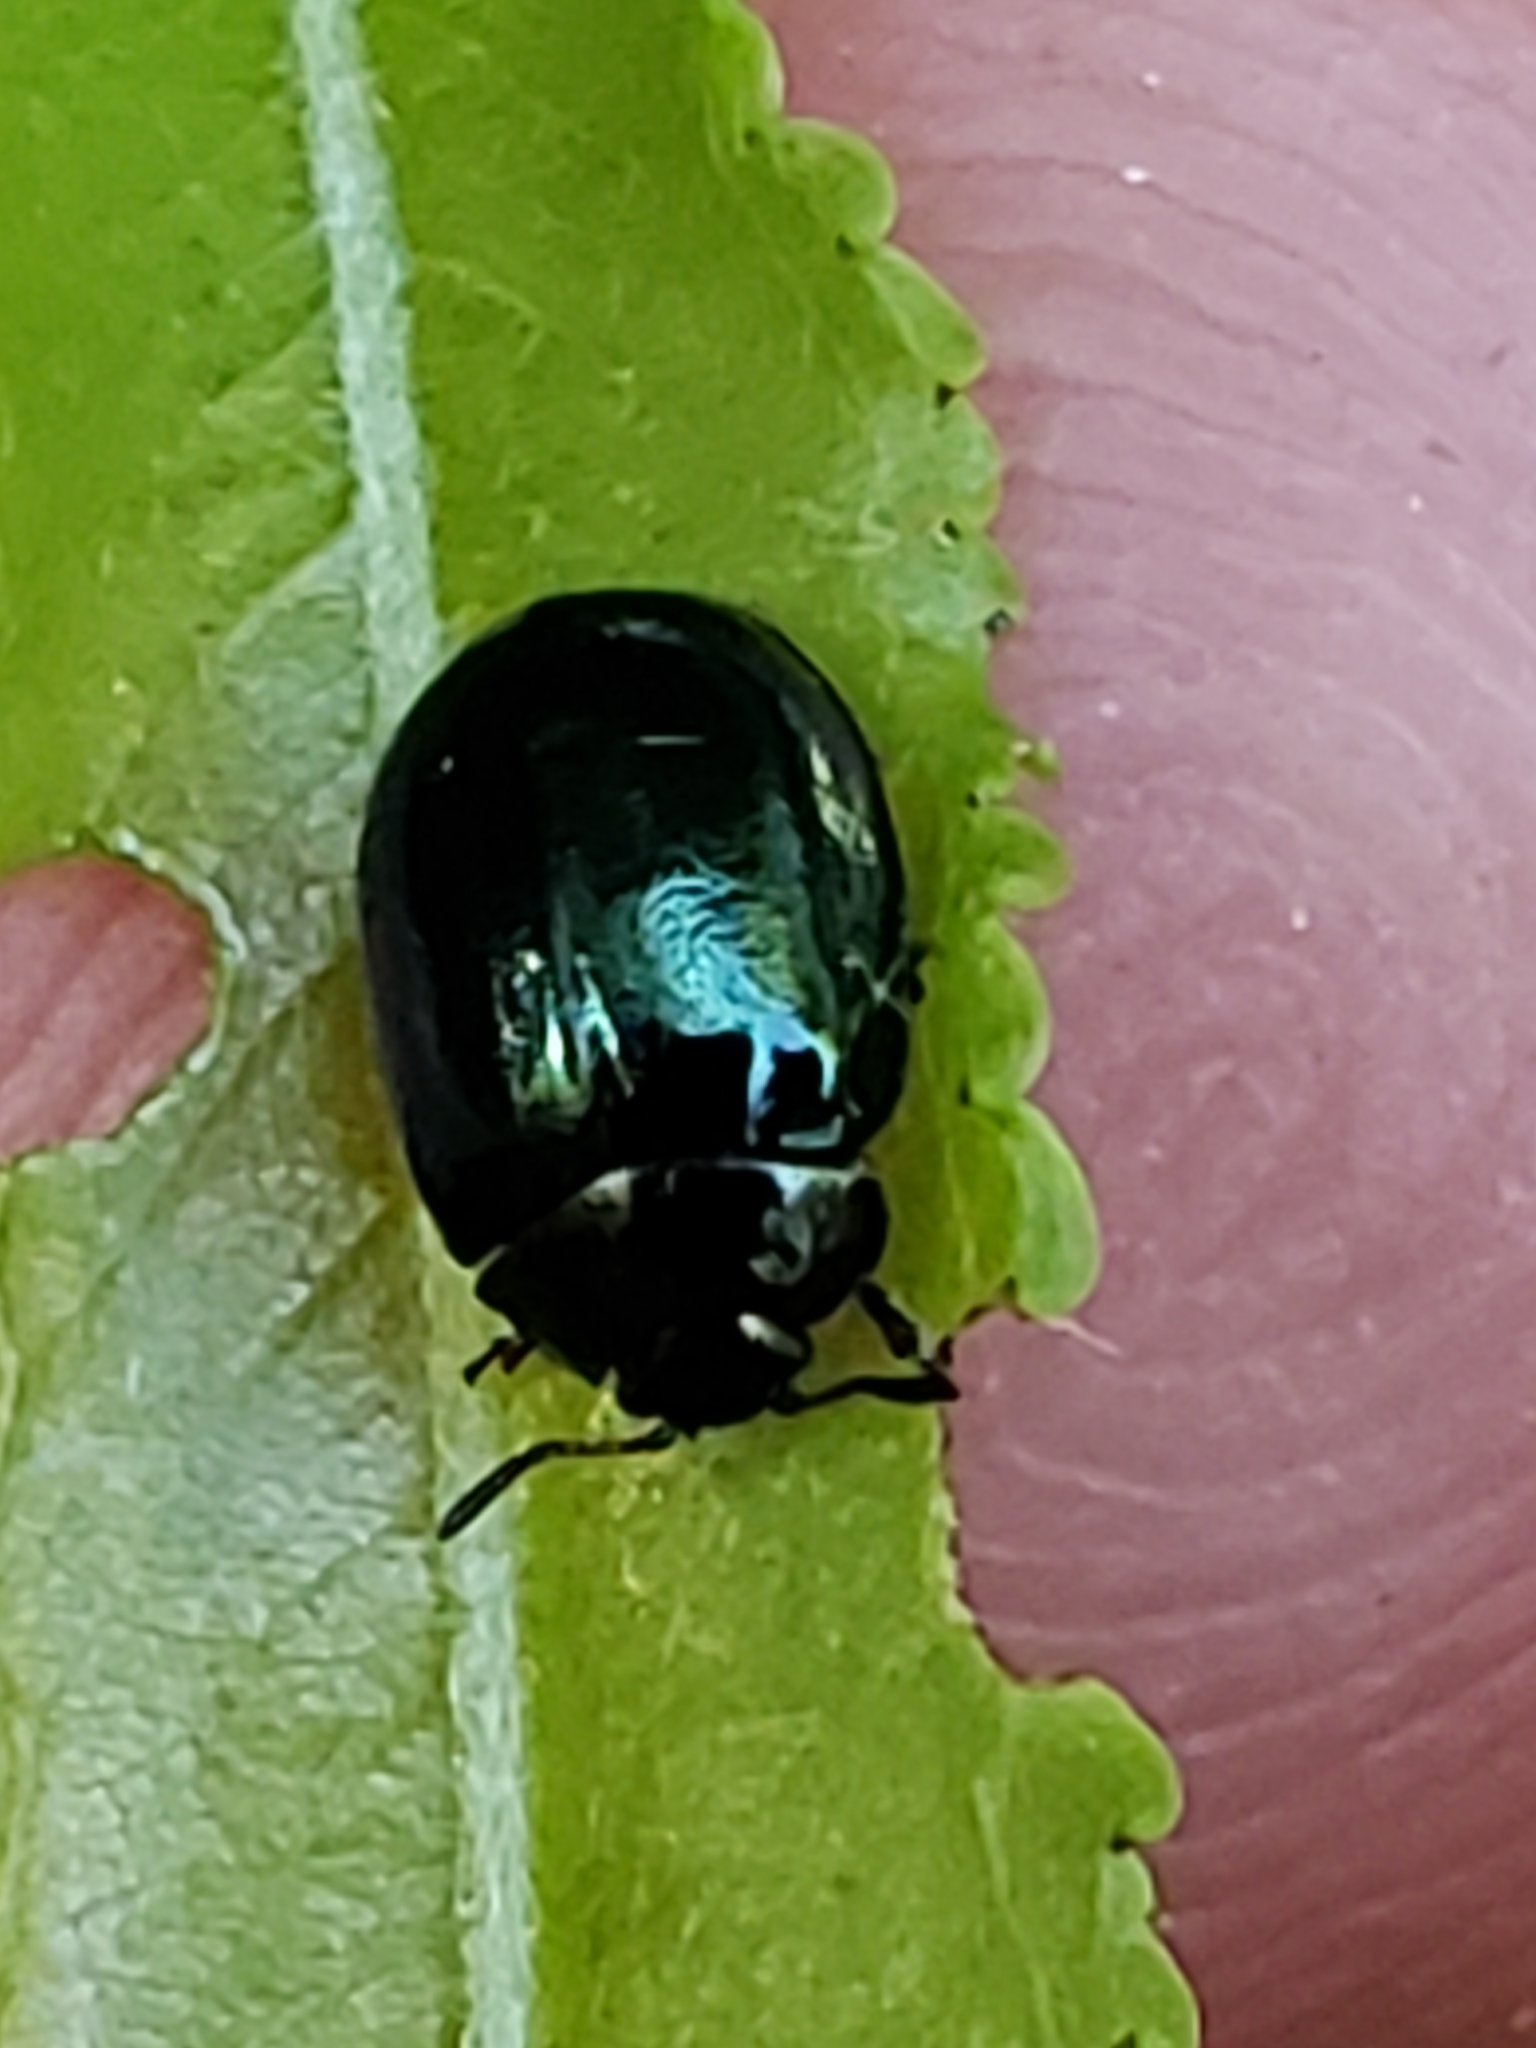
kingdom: Animalia
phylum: Arthropoda
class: Insecta
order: Coleoptera
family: Chrysomelidae
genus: Plagiodera
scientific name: Plagiodera versicolora
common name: Imported willow leaf beetle
